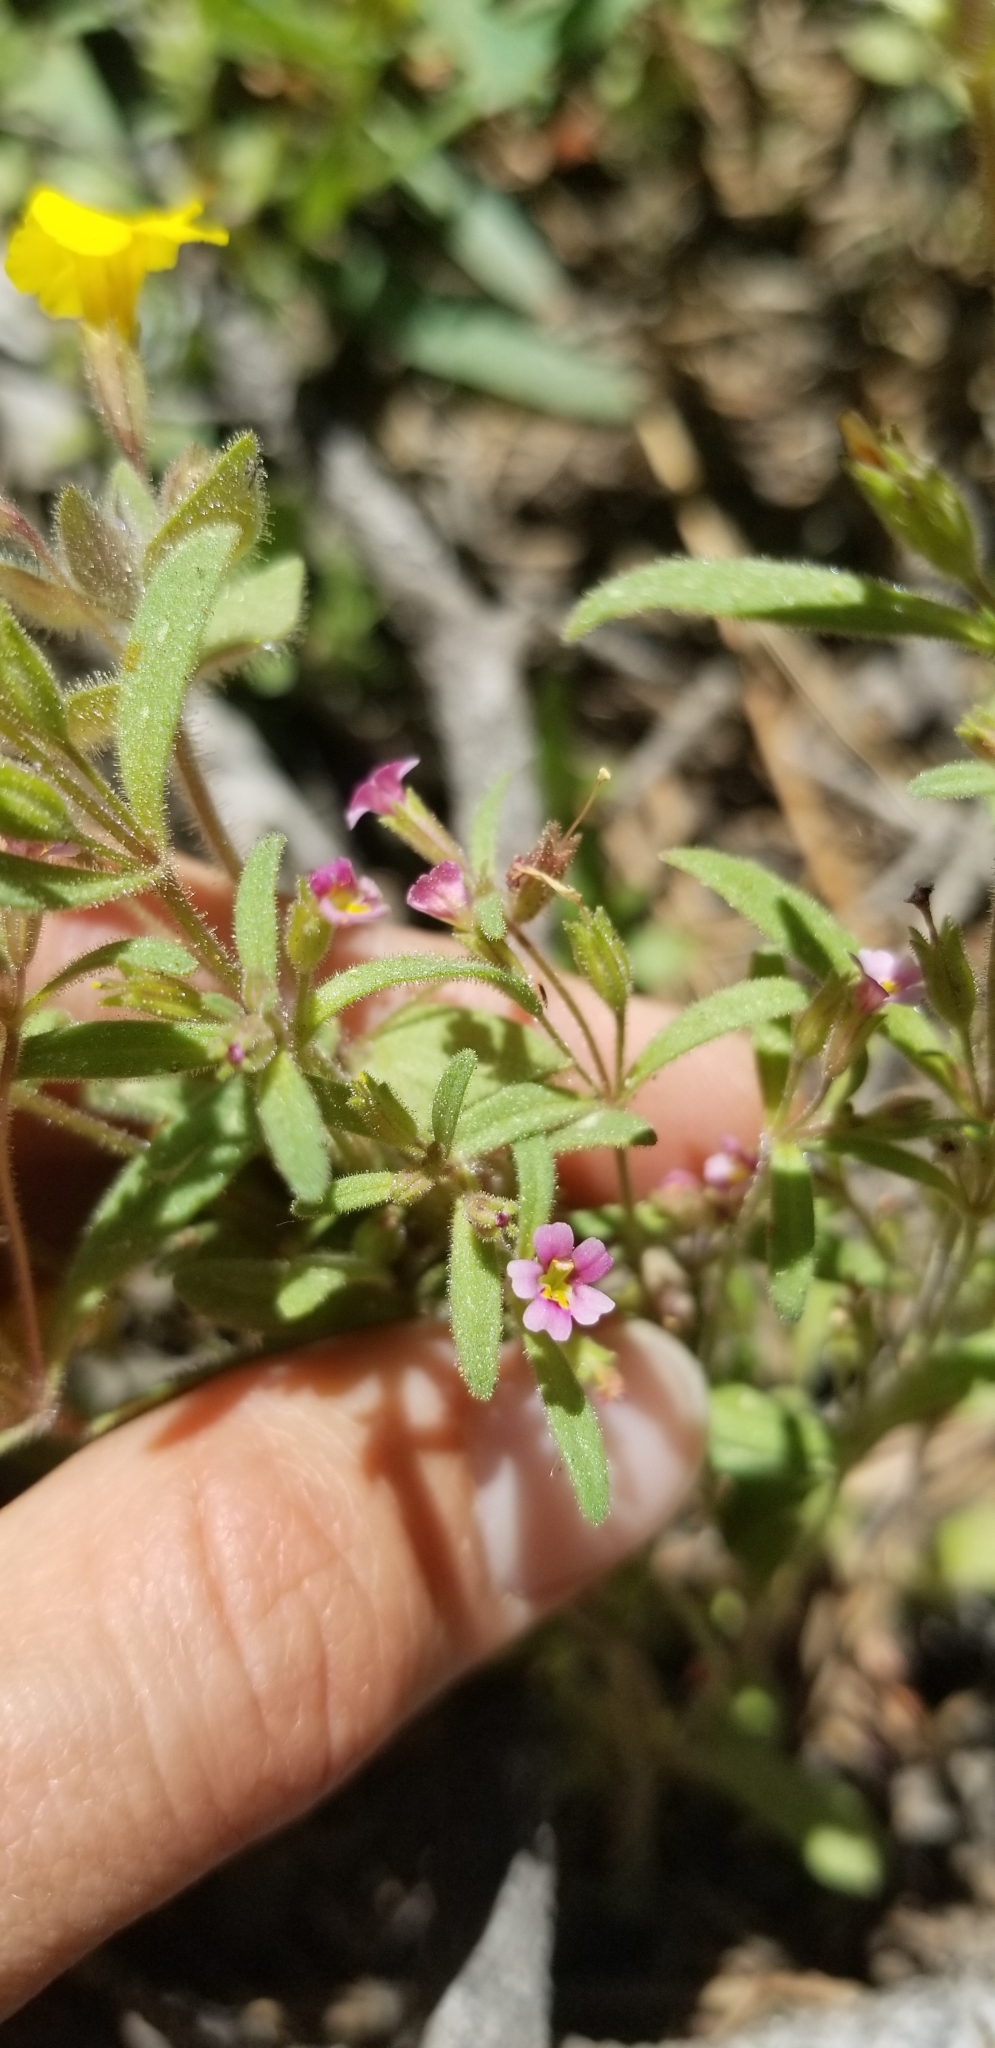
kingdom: Plantae
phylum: Tracheophyta
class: Magnoliopsida
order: Lamiales
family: Phrymaceae
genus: Erythranthe
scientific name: Erythranthe breweri
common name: Brewer's monkeyflower
